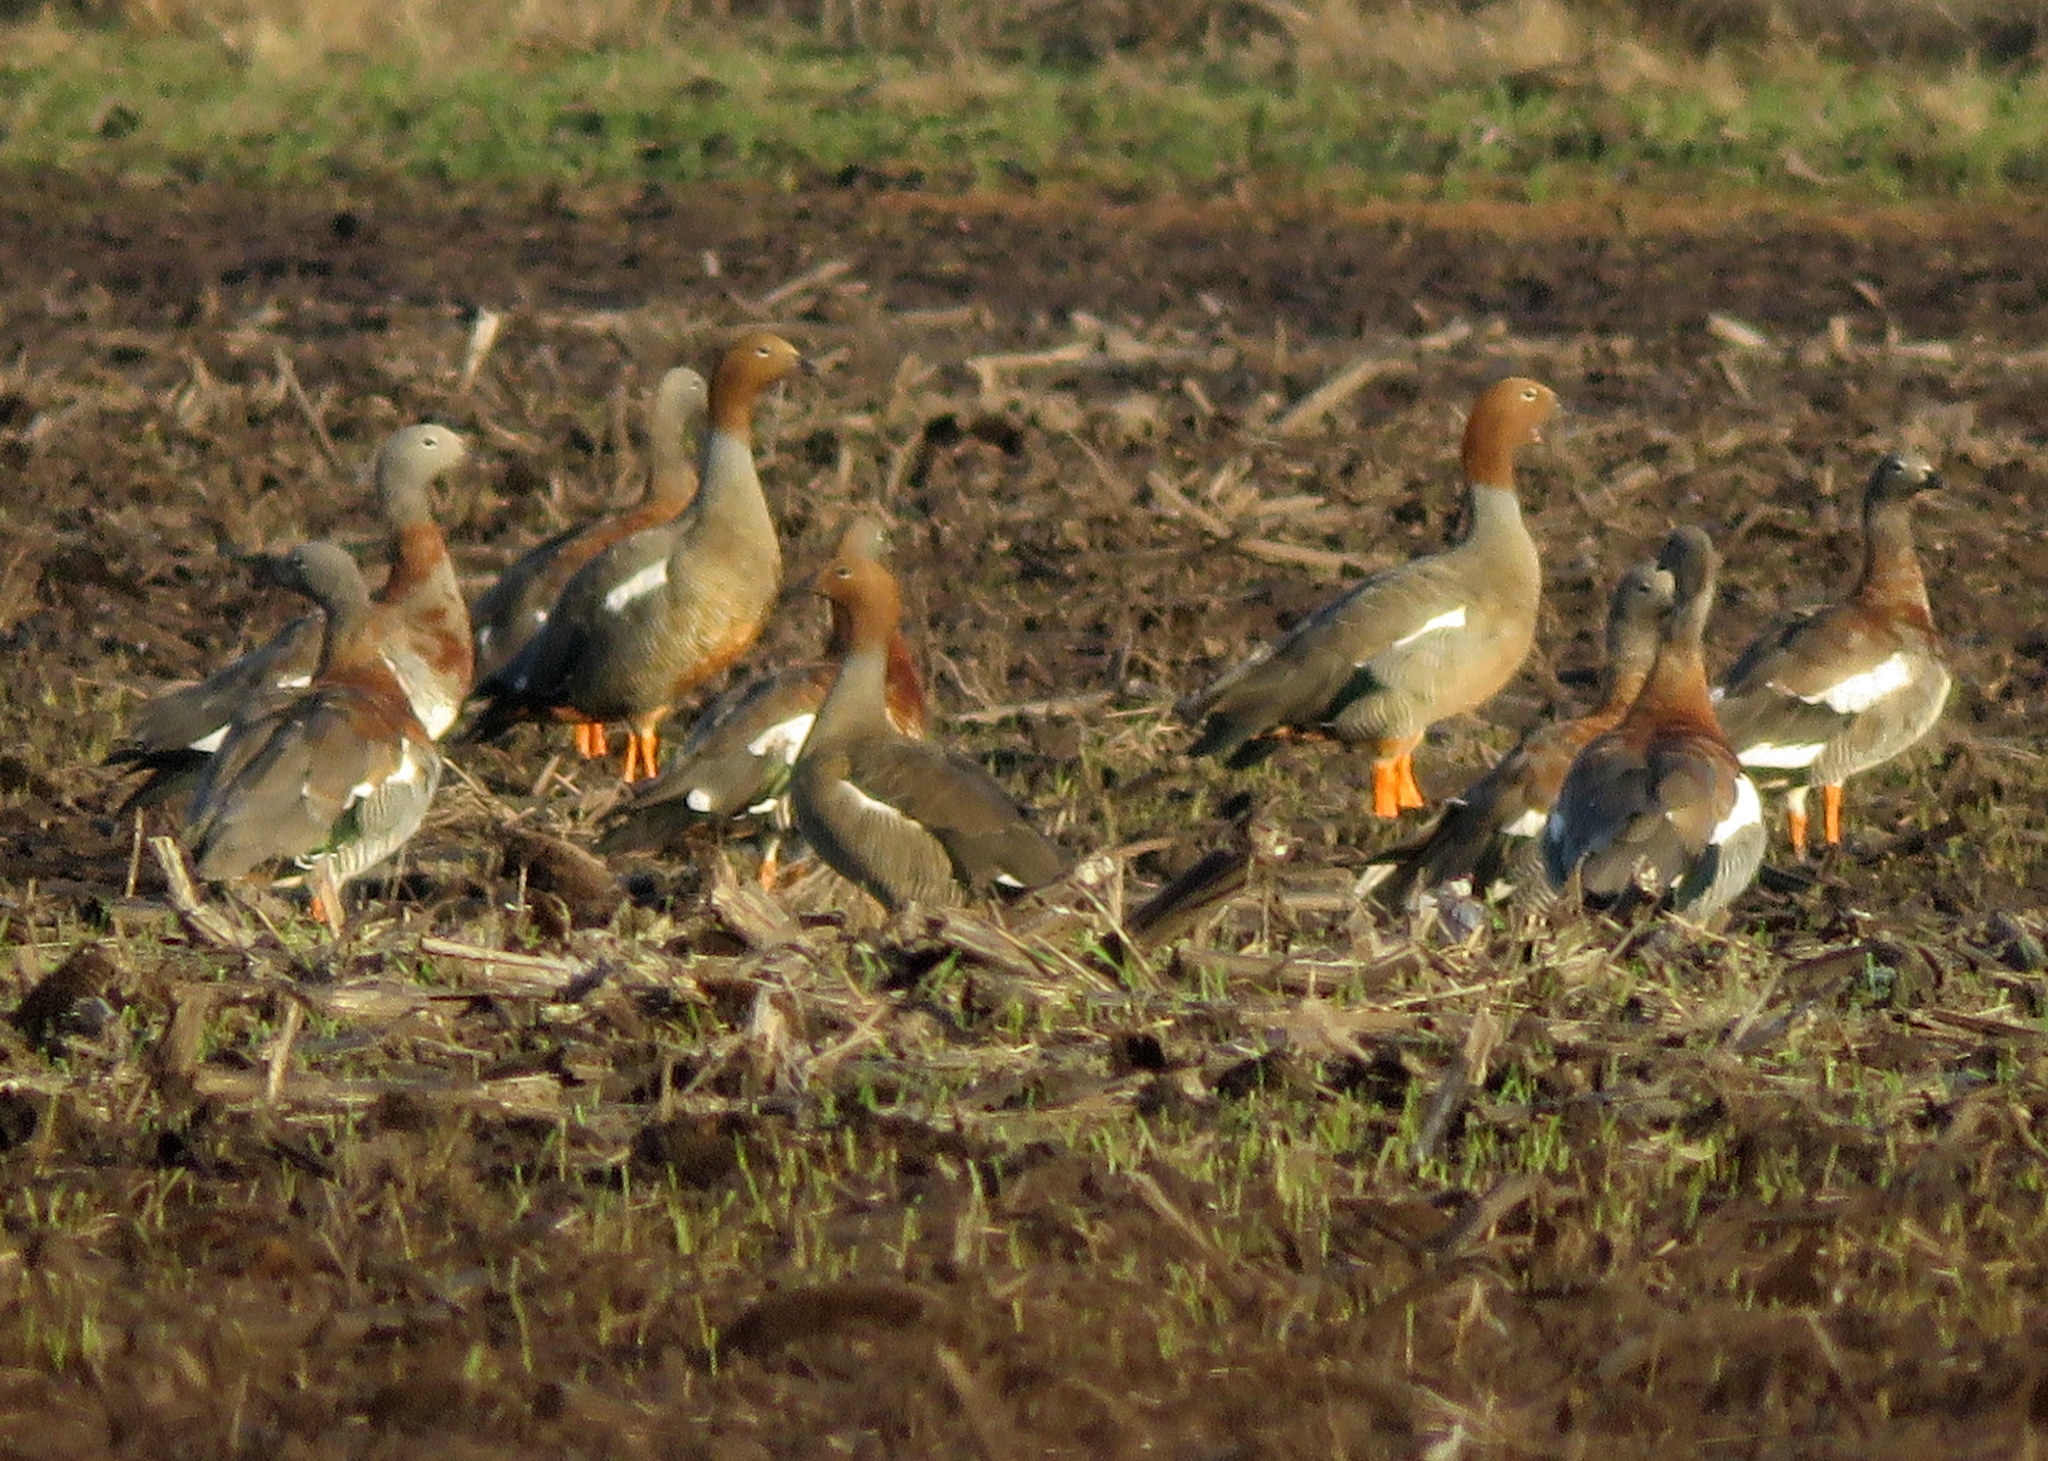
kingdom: Animalia
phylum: Chordata
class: Aves
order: Anseriformes
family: Anatidae
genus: Chloephaga
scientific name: Chloephaga rubidiceps
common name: Ruddy-headed goose
